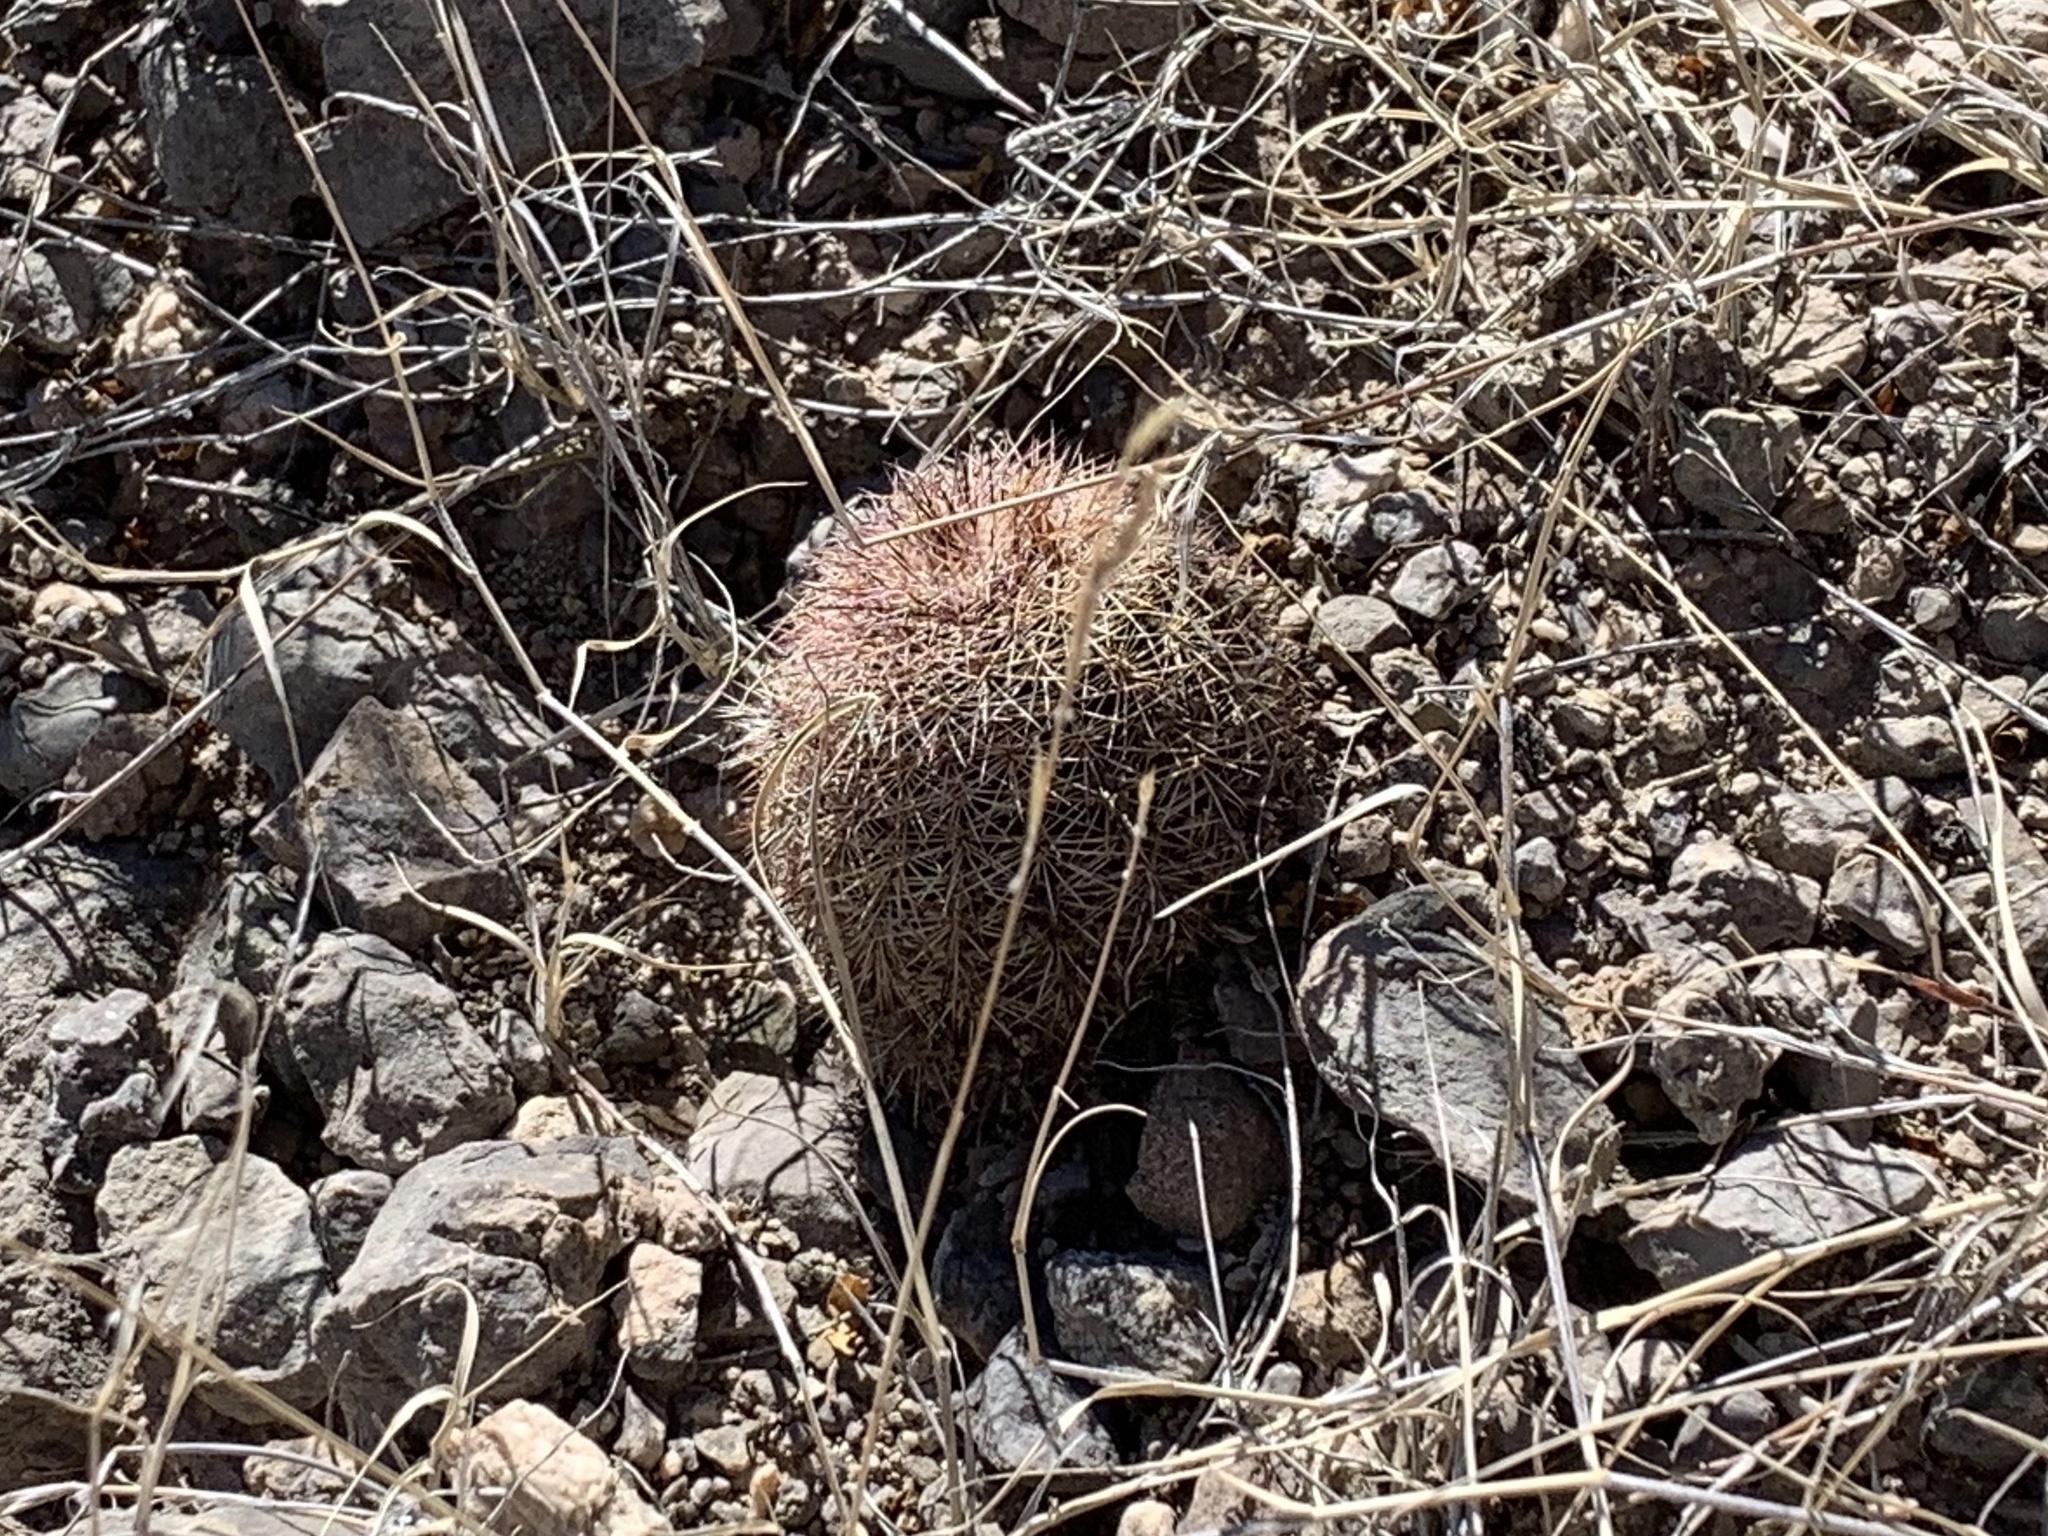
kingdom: Plantae
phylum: Tracheophyta
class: Magnoliopsida
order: Caryophyllales
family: Cactaceae
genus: Echinocereus
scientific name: Echinocereus dasyacanthus
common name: Spiny hedgehog cactus
